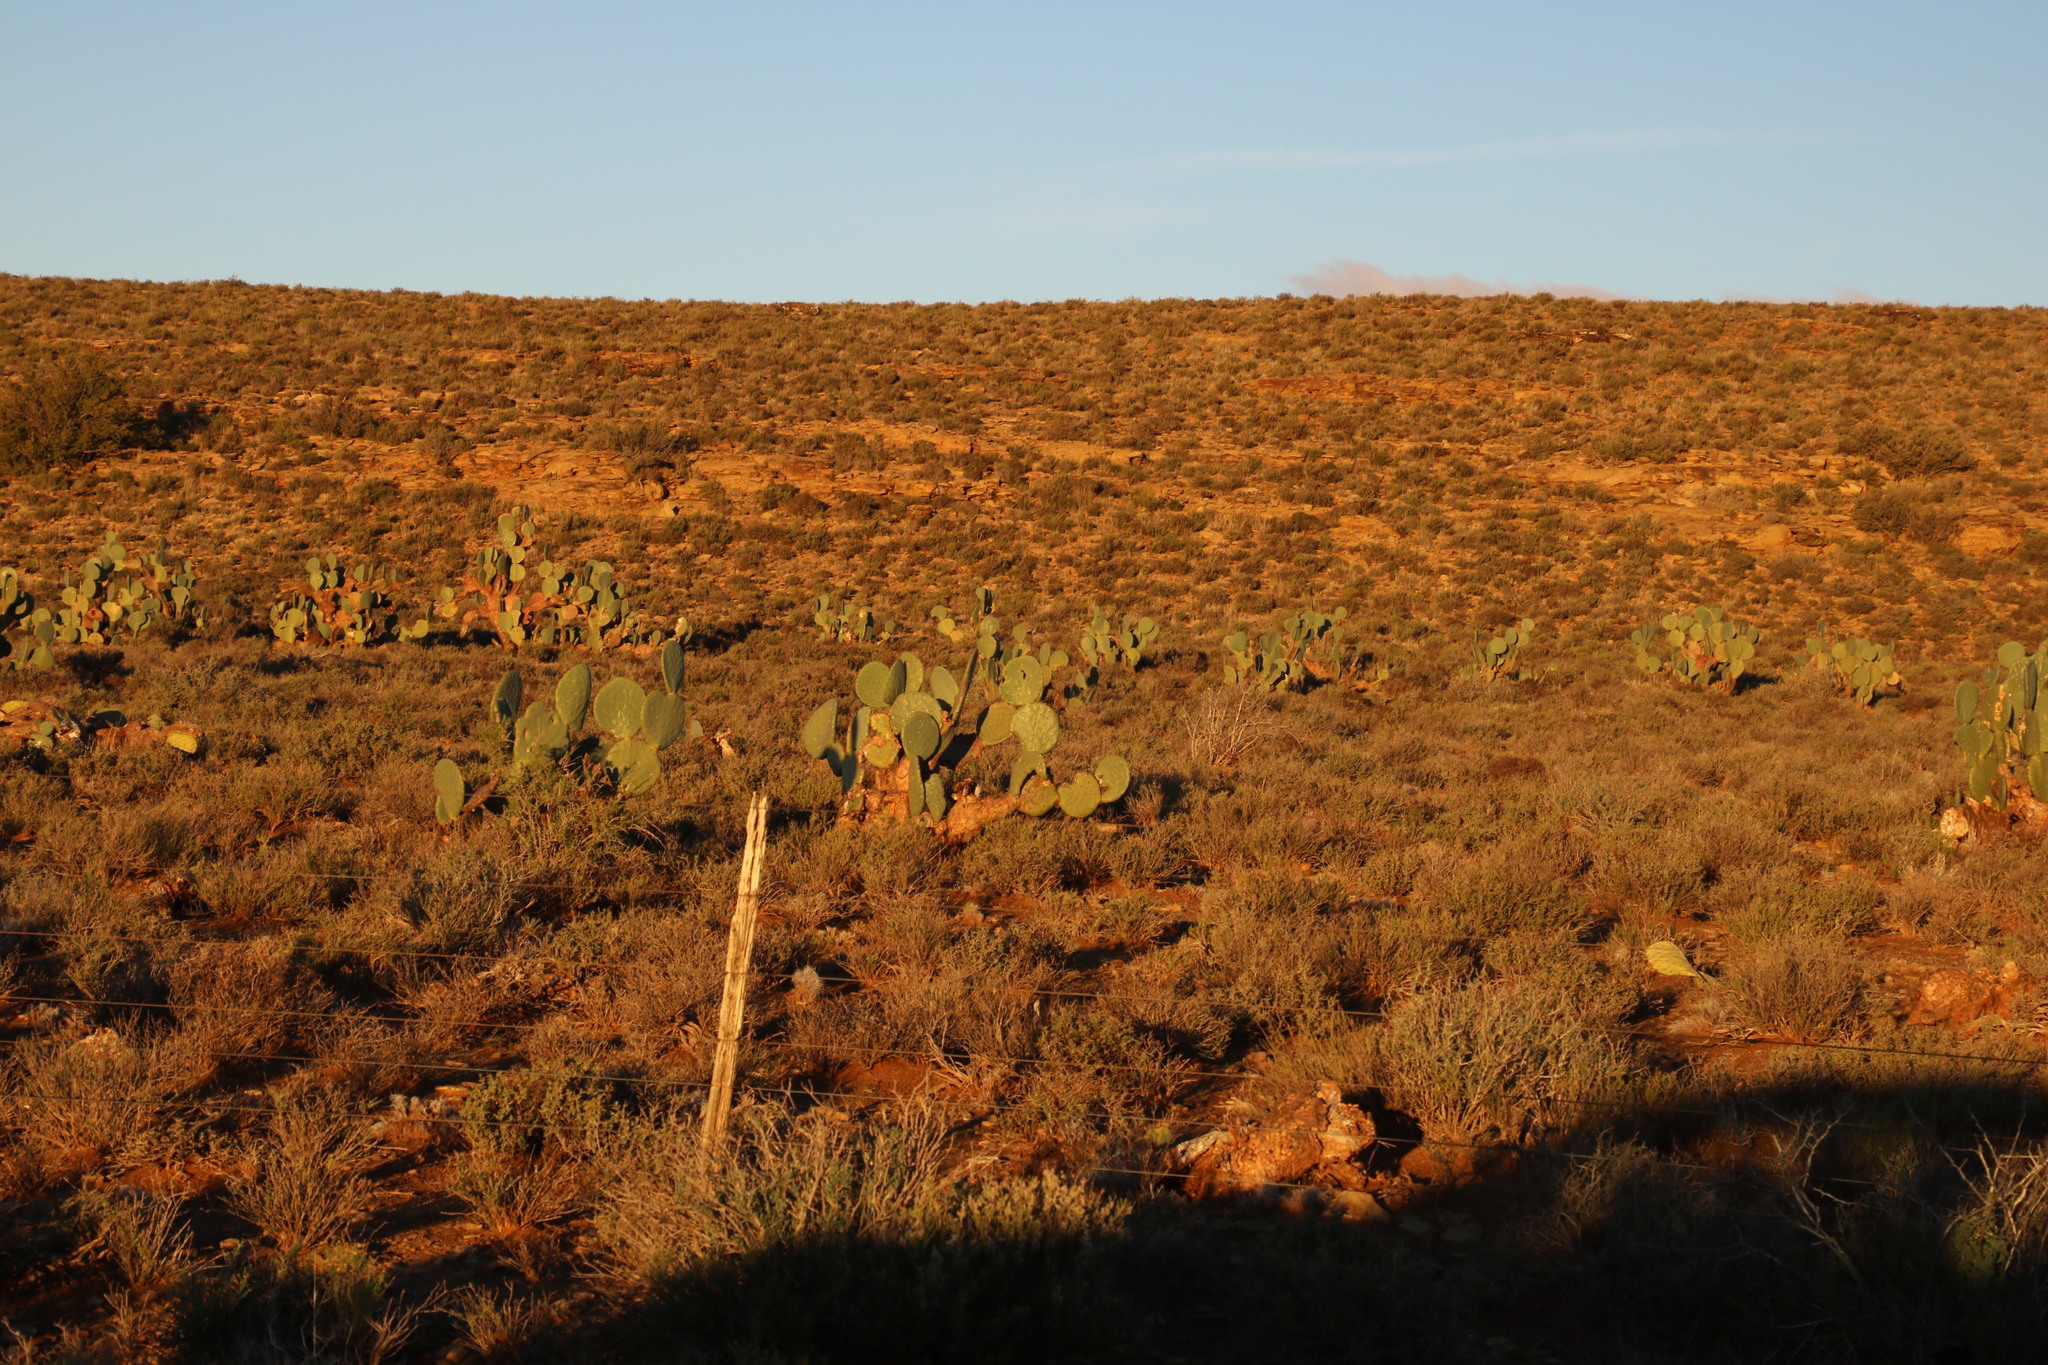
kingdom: Plantae
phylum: Tracheophyta
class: Magnoliopsida
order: Caryophyllales
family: Cactaceae
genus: Opuntia
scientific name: Opuntia robusta
